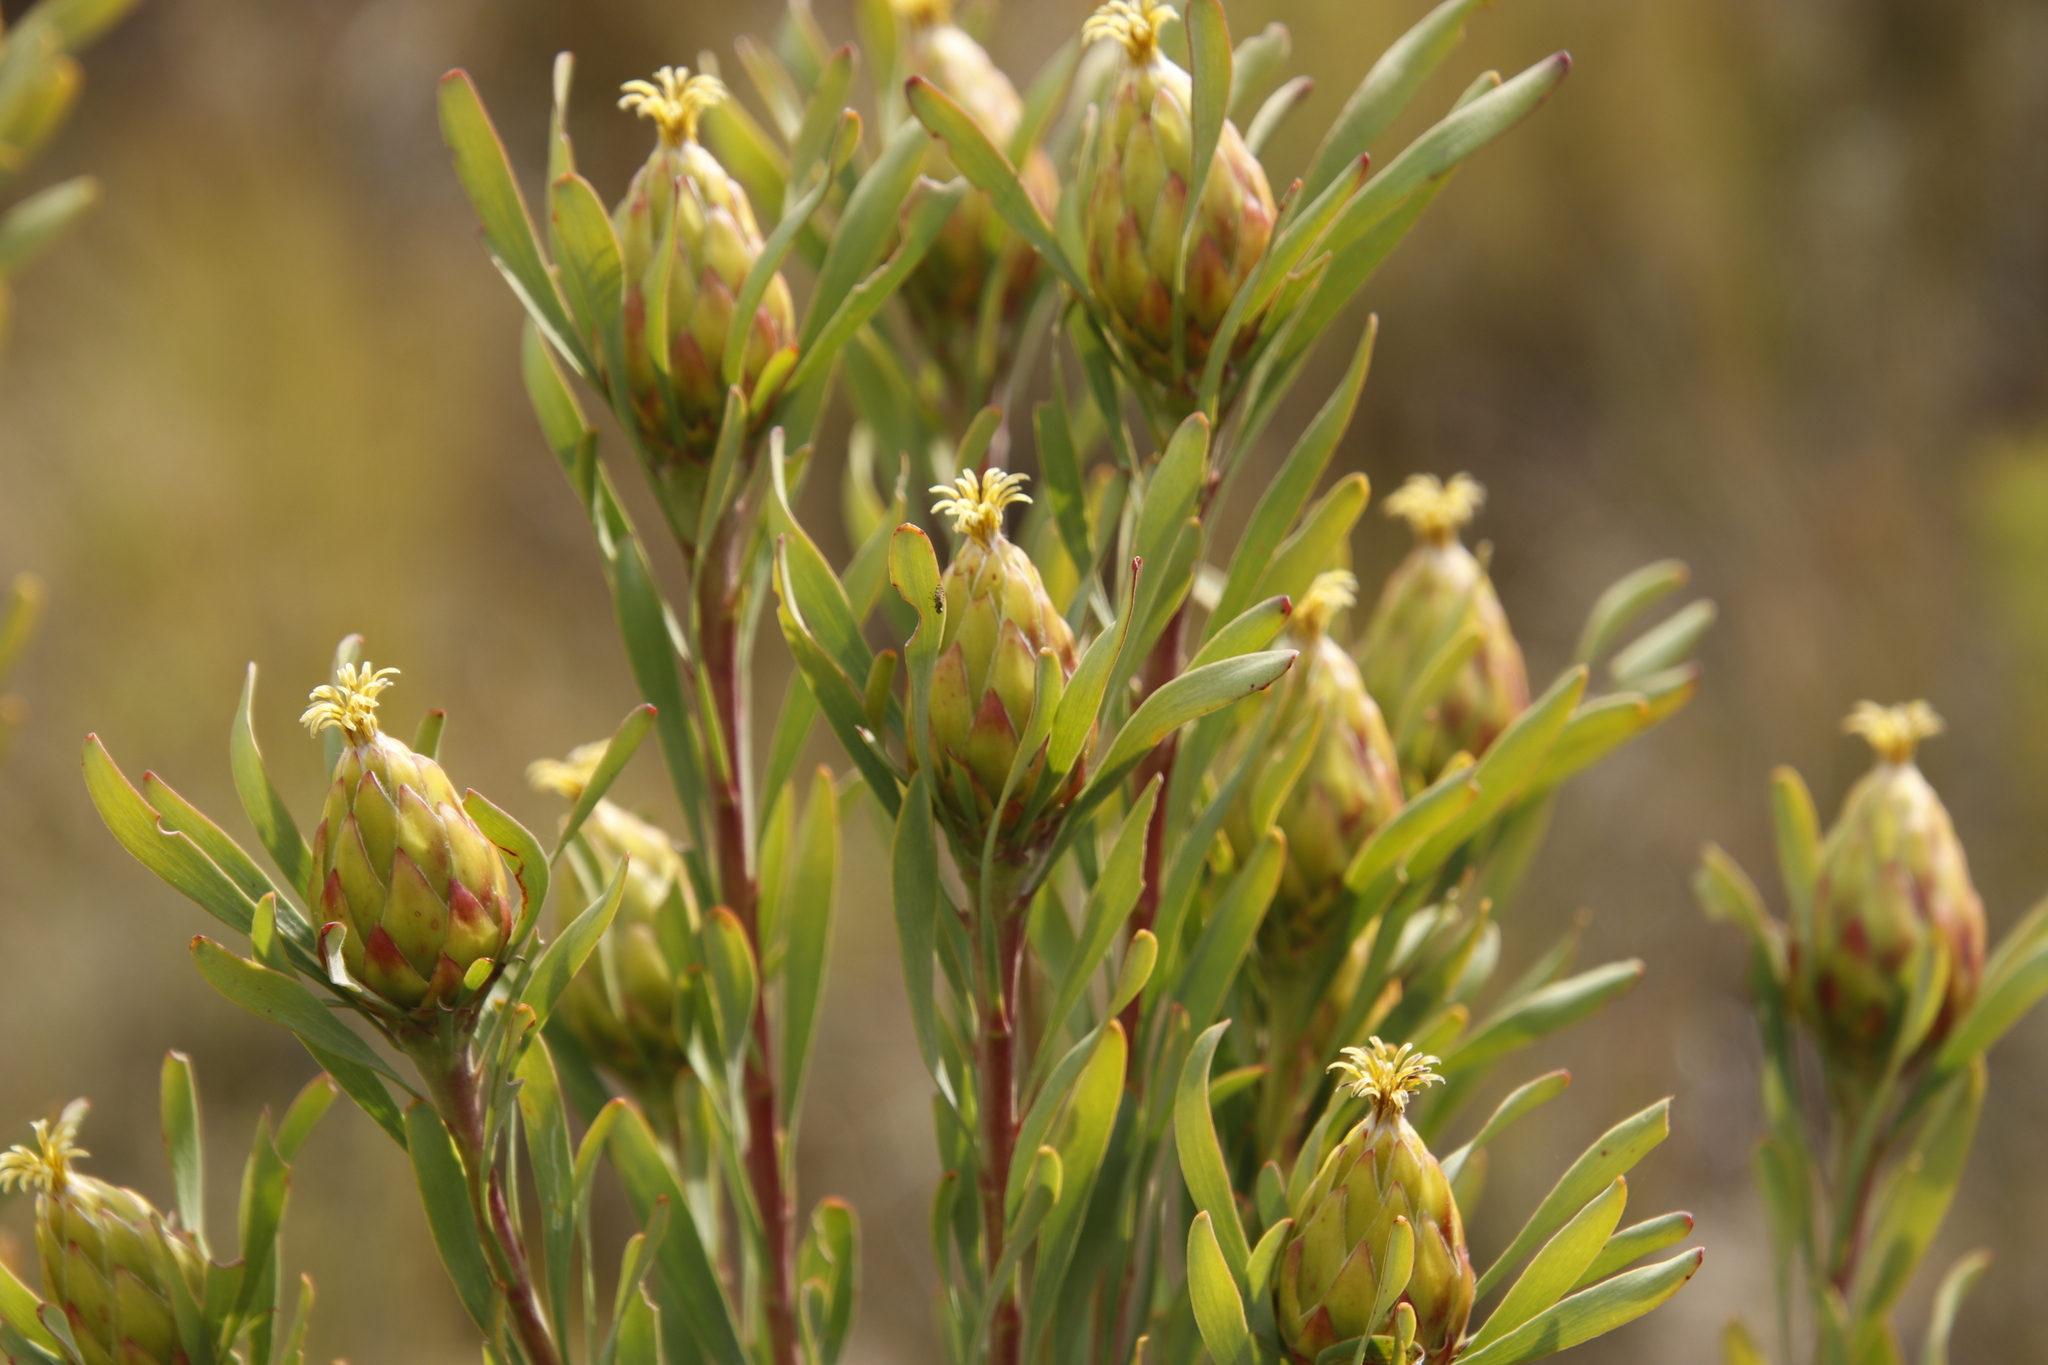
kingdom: Plantae
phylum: Tracheophyta
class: Magnoliopsida
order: Proteales
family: Proteaceae
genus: Leucadendron
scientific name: Leucadendron rubrum
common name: Spinning top
